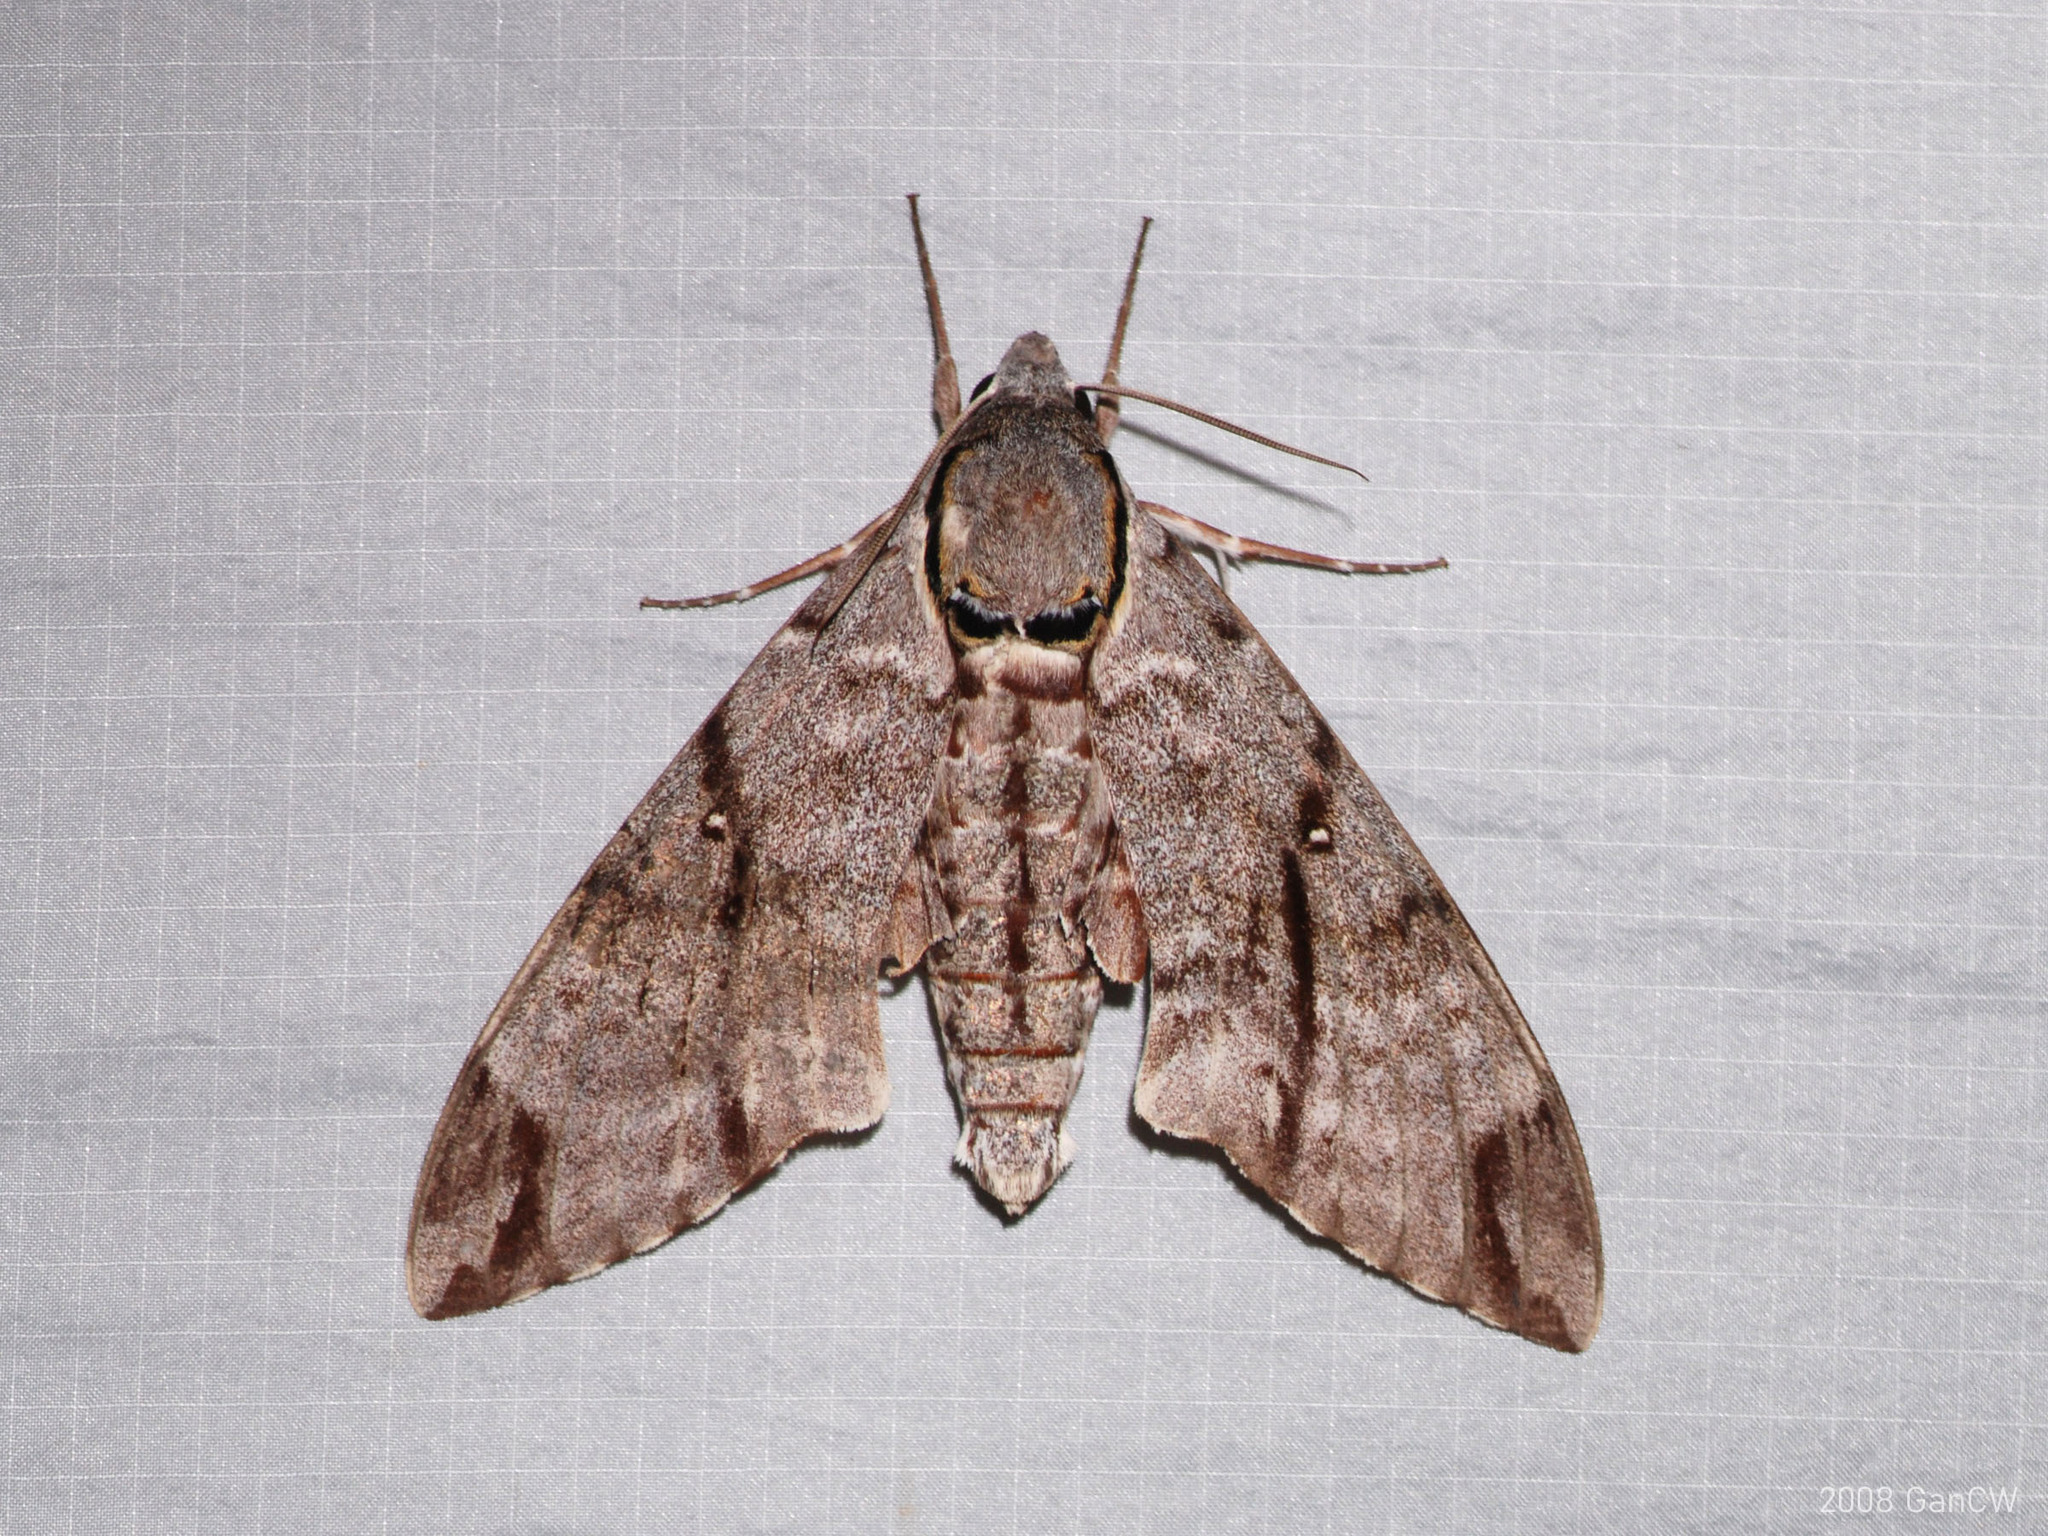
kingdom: Animalia
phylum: Arthropoda
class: Insecta
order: Lepidoptera
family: Sphingidae
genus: Notonagemia
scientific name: Notonagemia analis
